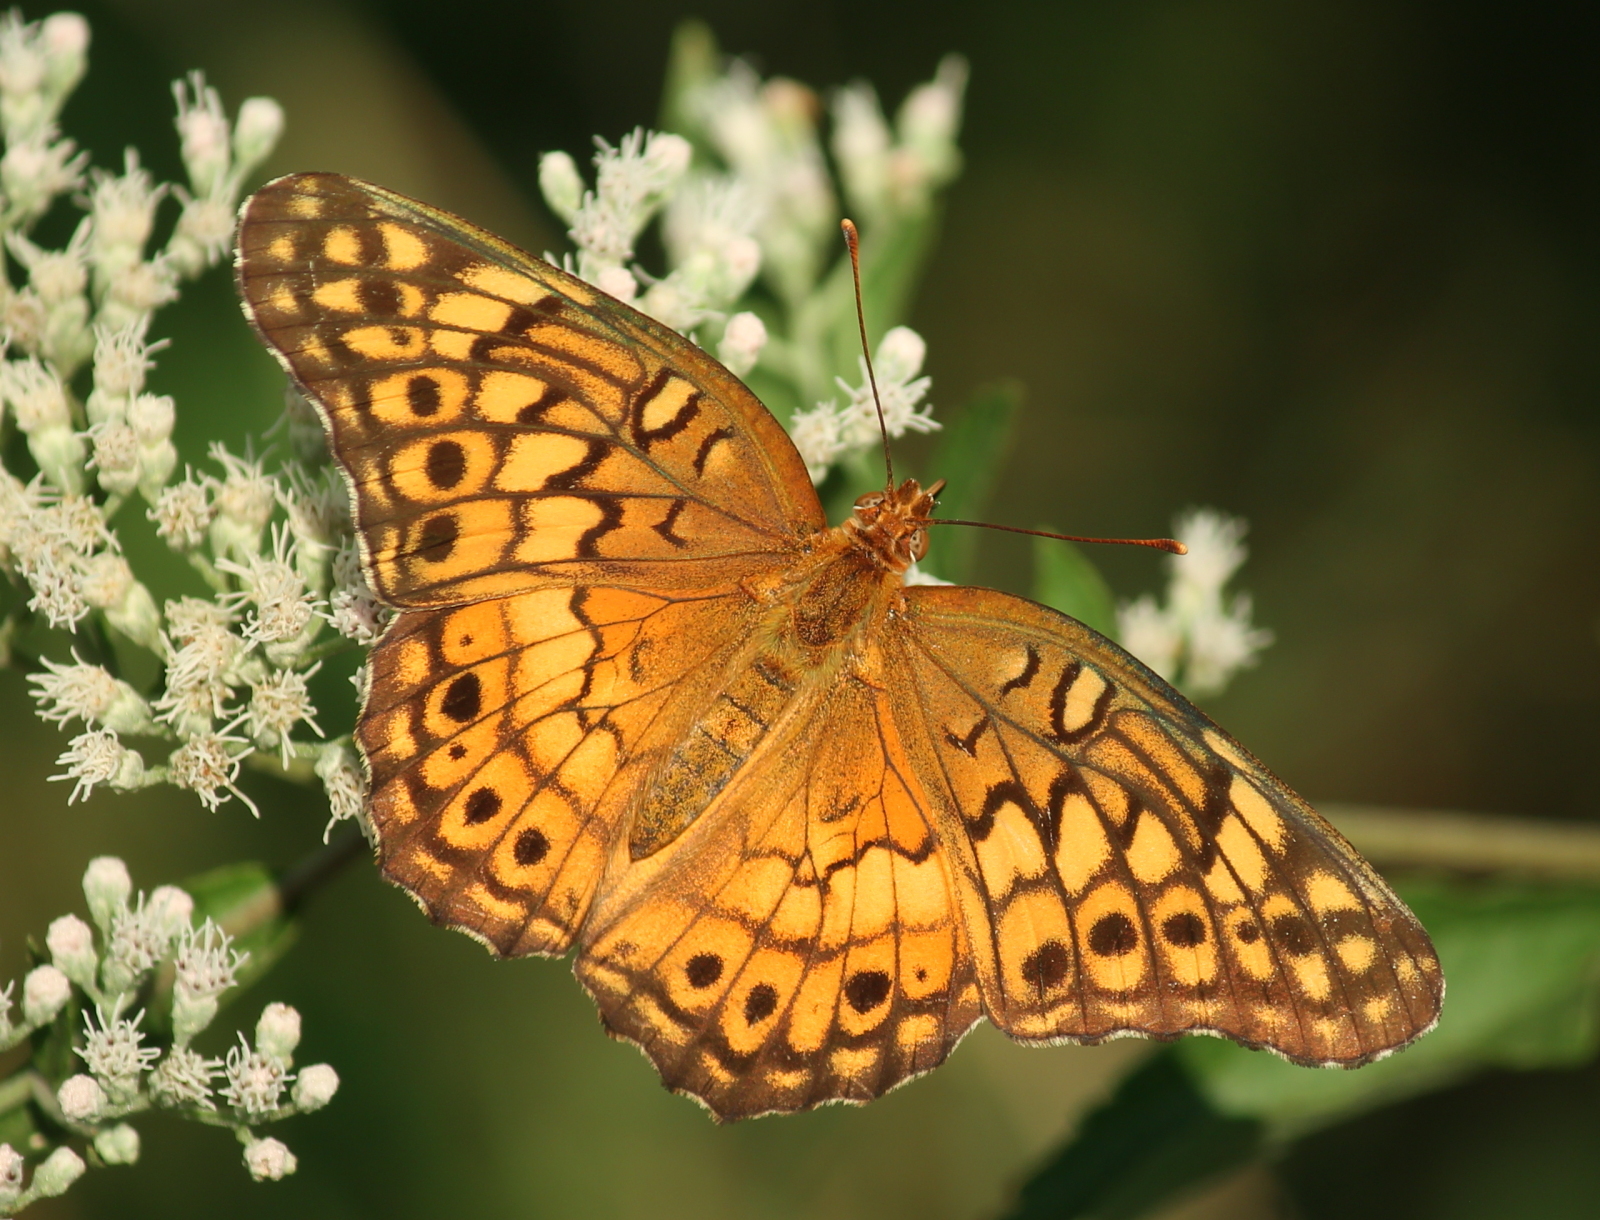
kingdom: Animalia
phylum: Arthropoda
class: Insecta
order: Lepidoptera
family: Nymphalidae
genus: Euptoieta
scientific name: Euptoieta claudia
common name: Variegated fritillary
